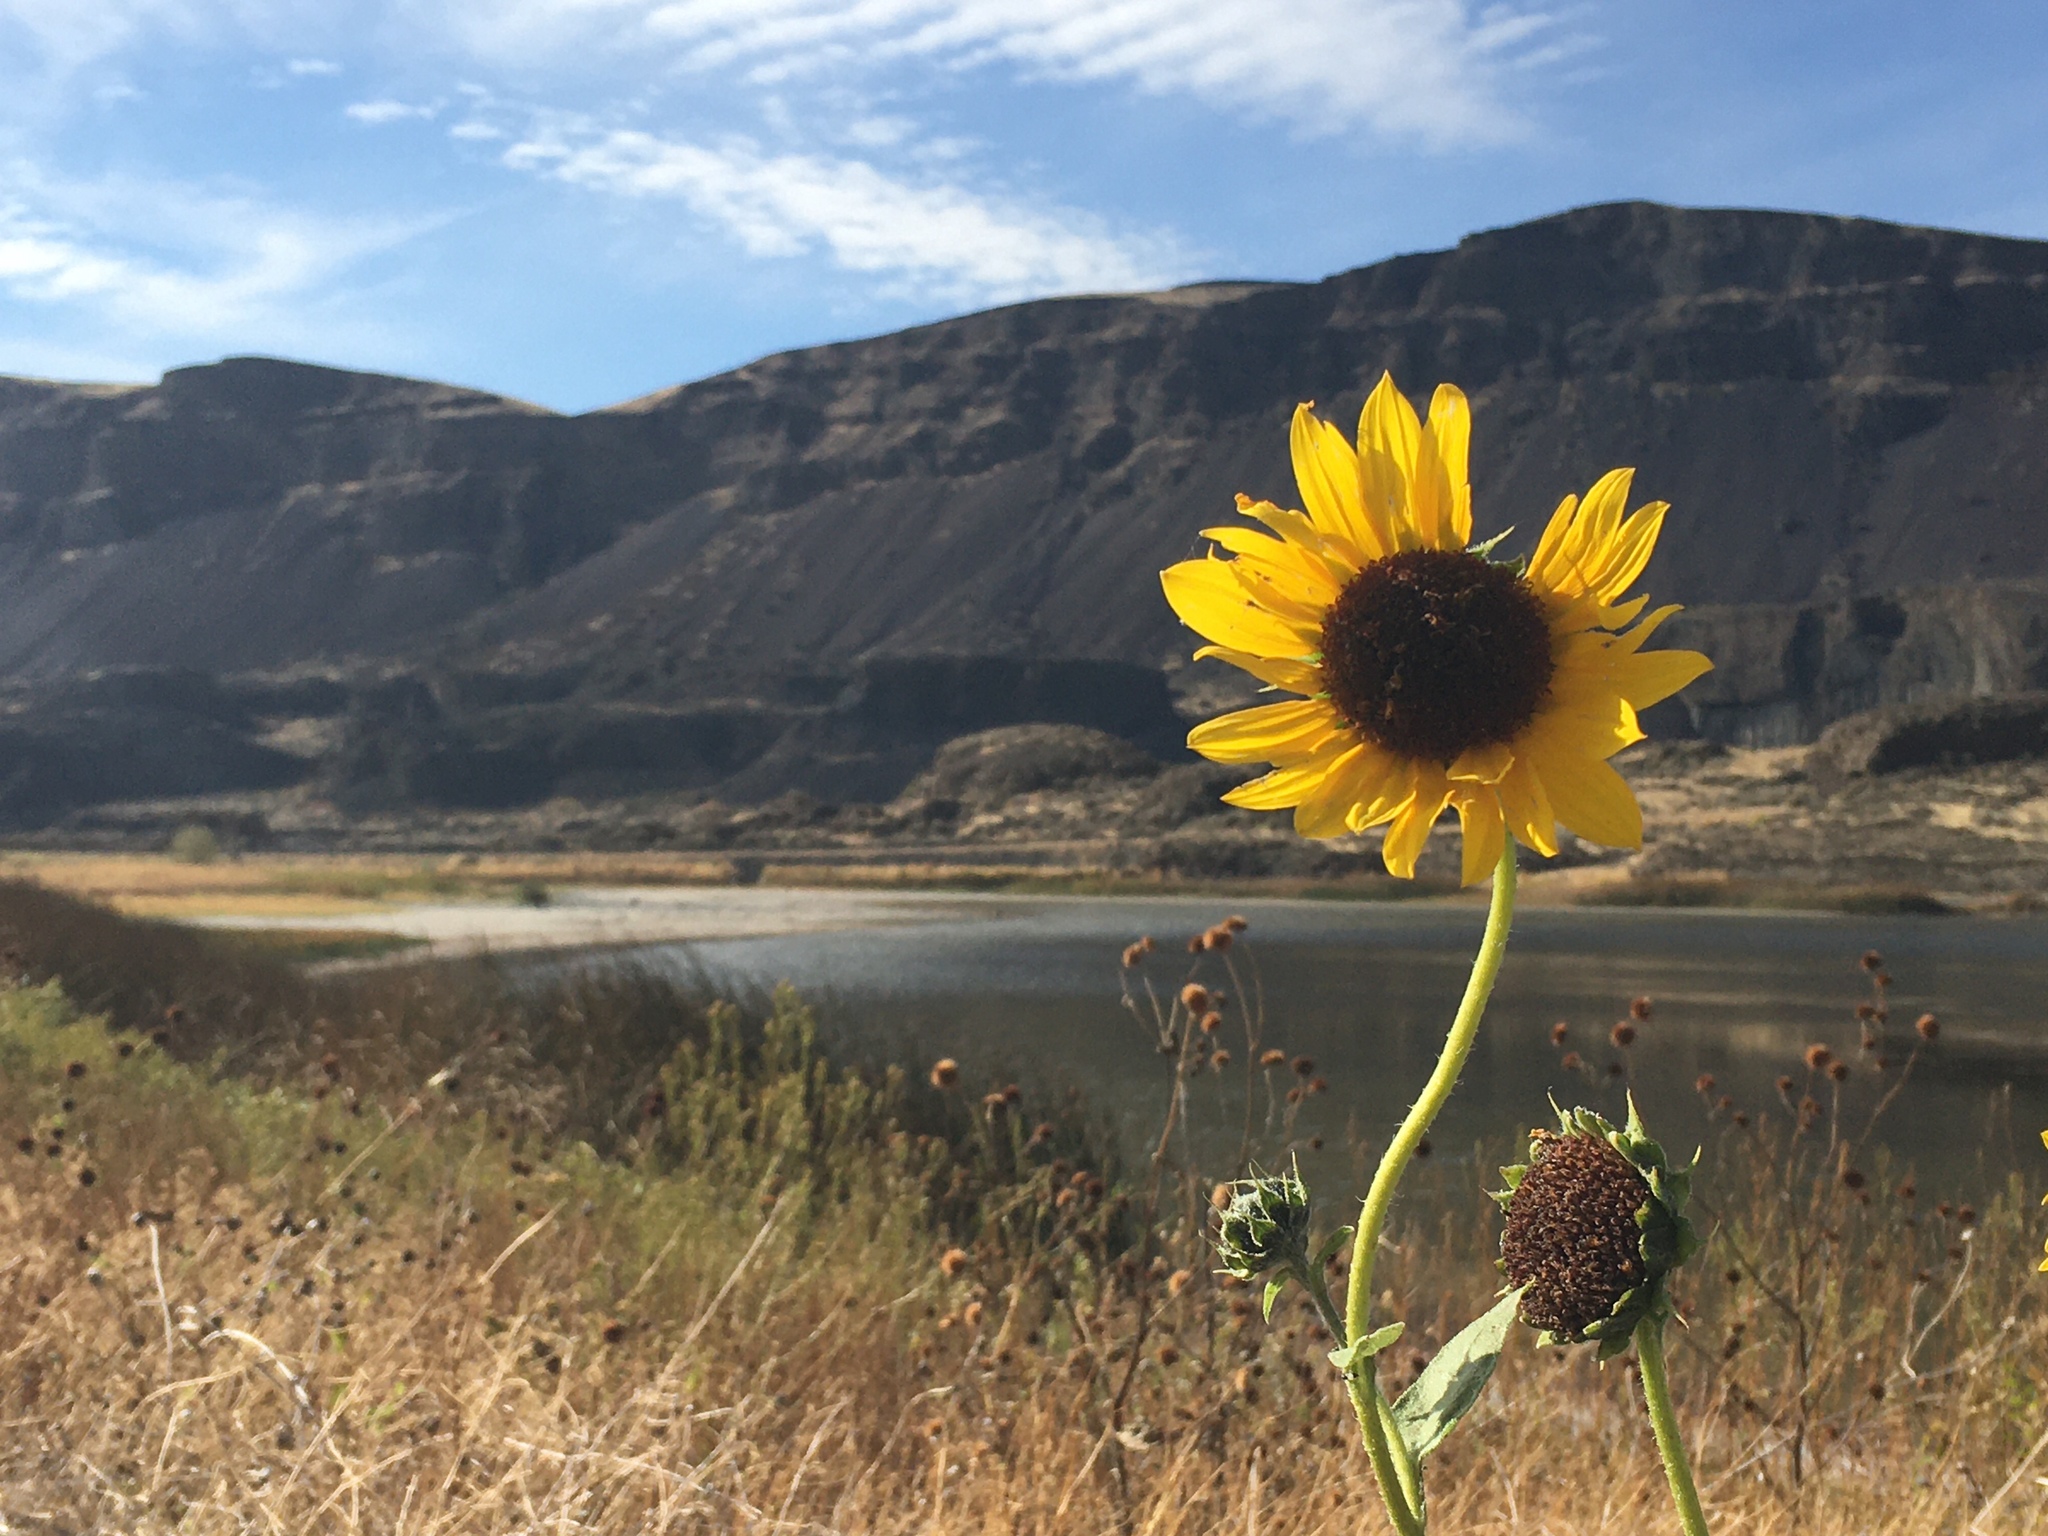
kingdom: Plantae
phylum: Tracheophyta
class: Magnoliopsida
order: Asterales
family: Asteraceae
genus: Helianthus
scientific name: Helianthus annuus
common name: Sunflower
